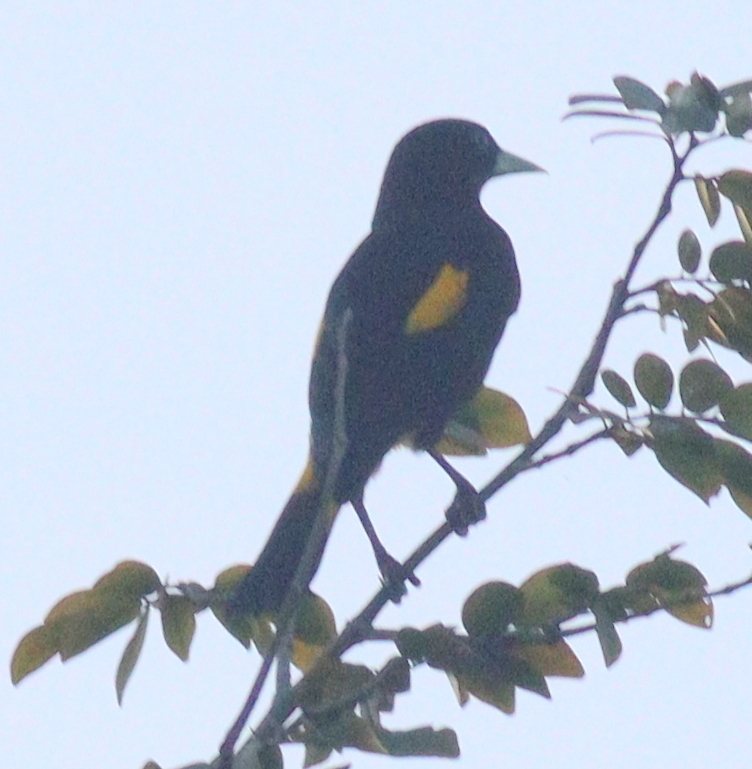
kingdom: Animalia
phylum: Chordata
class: Aves
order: Passeriformes
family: Icteridae
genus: Cacicus
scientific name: Cacicus cela
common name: Yellow-rumped cacique
